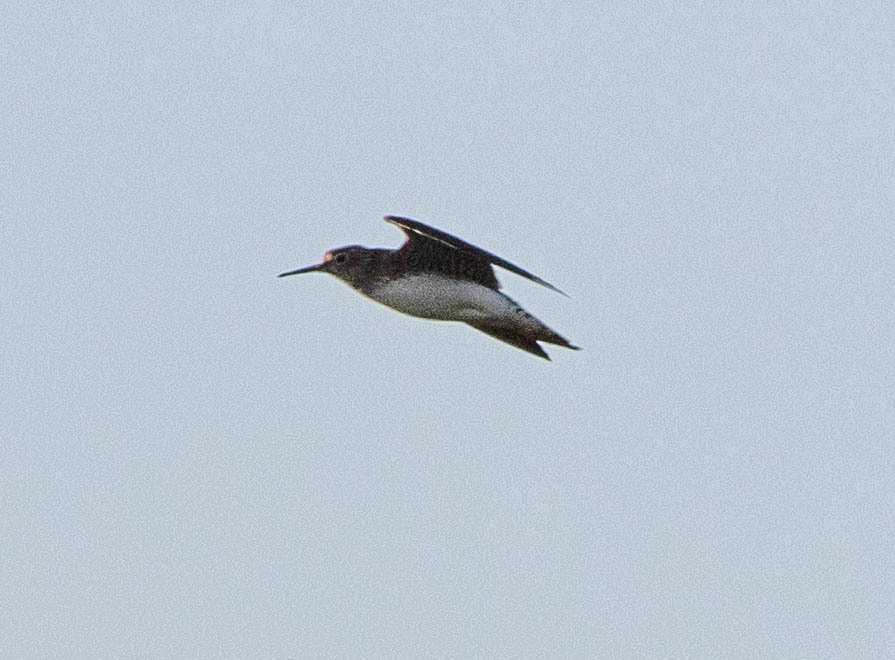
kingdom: Animalia
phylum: Chordata
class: Aves
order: Charadriiformes
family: Scolopacidae
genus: Tringa
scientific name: Tringa solitaria
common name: Solitary sandpiper
